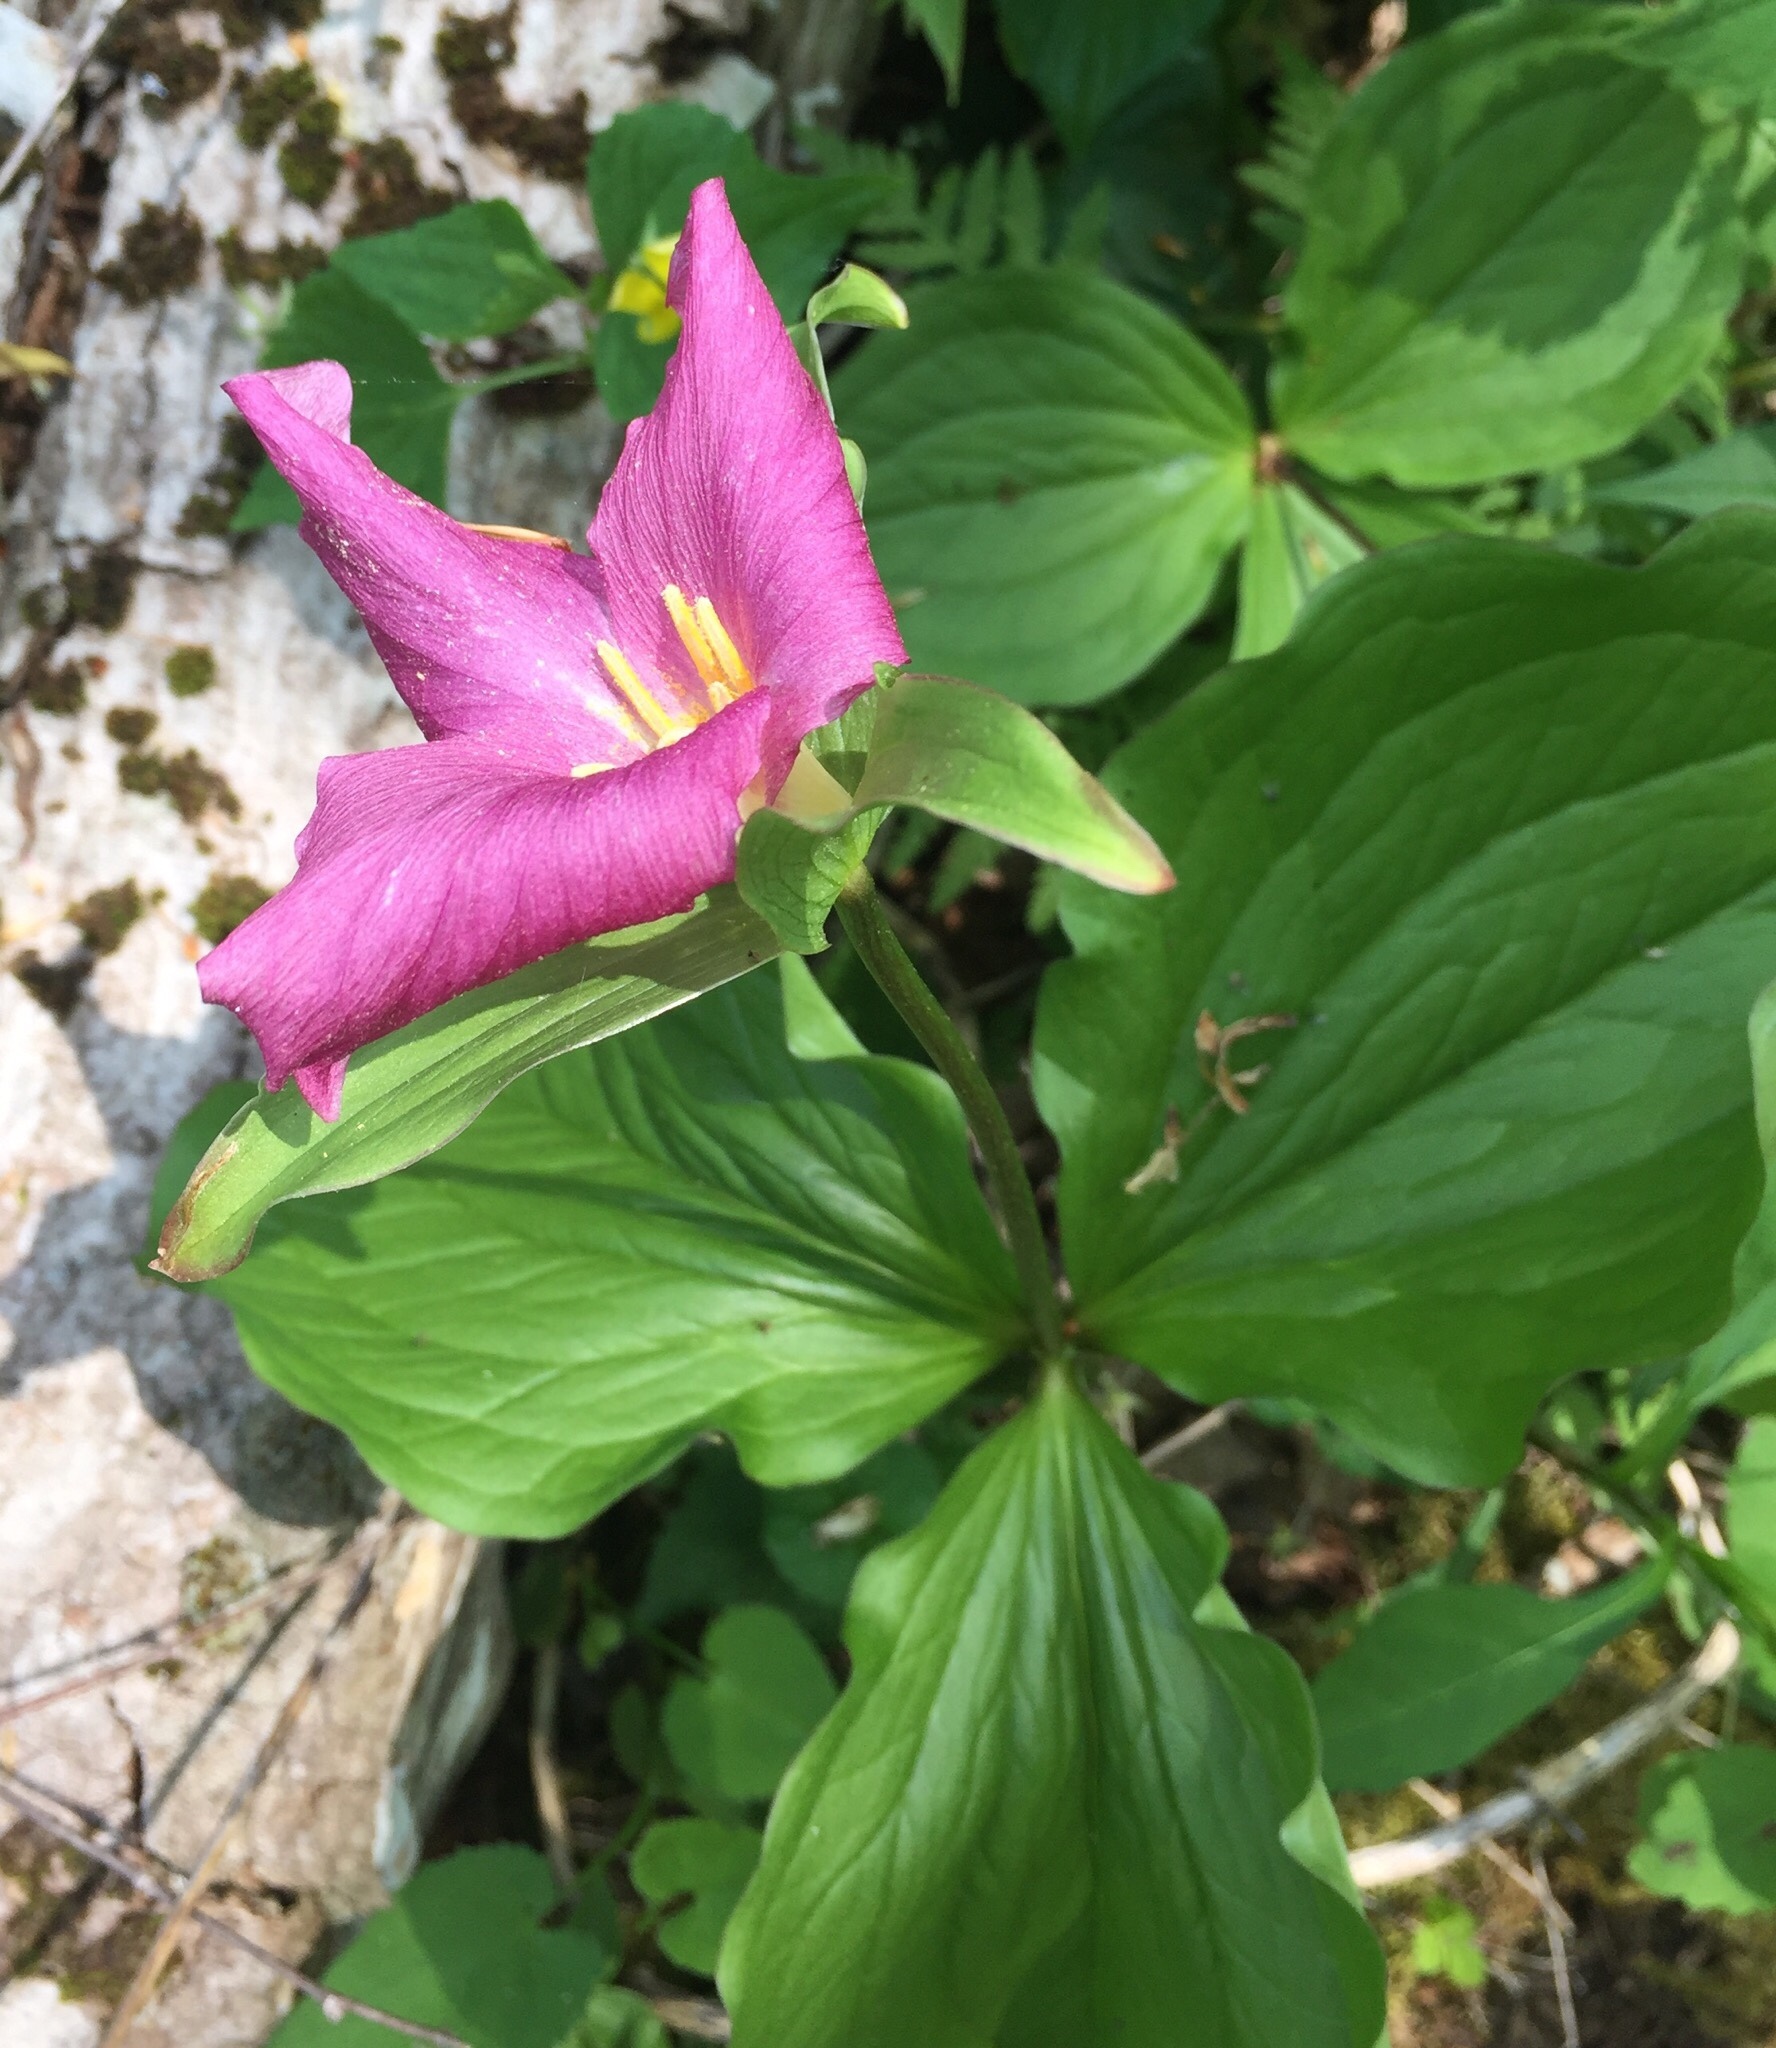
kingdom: Plantae
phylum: Tracheophyta
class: Liliopsida
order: Liliales
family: Melanthiaceae
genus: Trillium
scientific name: Trillium grandiflorum
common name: Great white trillium
